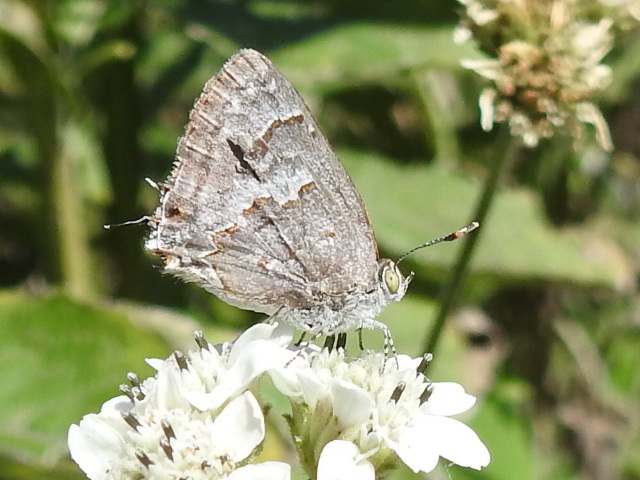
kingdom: Animalia
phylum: Arthropoda
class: Insecta
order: Lepidoptera
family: Lycaenidae
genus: Ministrymon
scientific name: Ministrymon clytie
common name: Clytie ministreak
